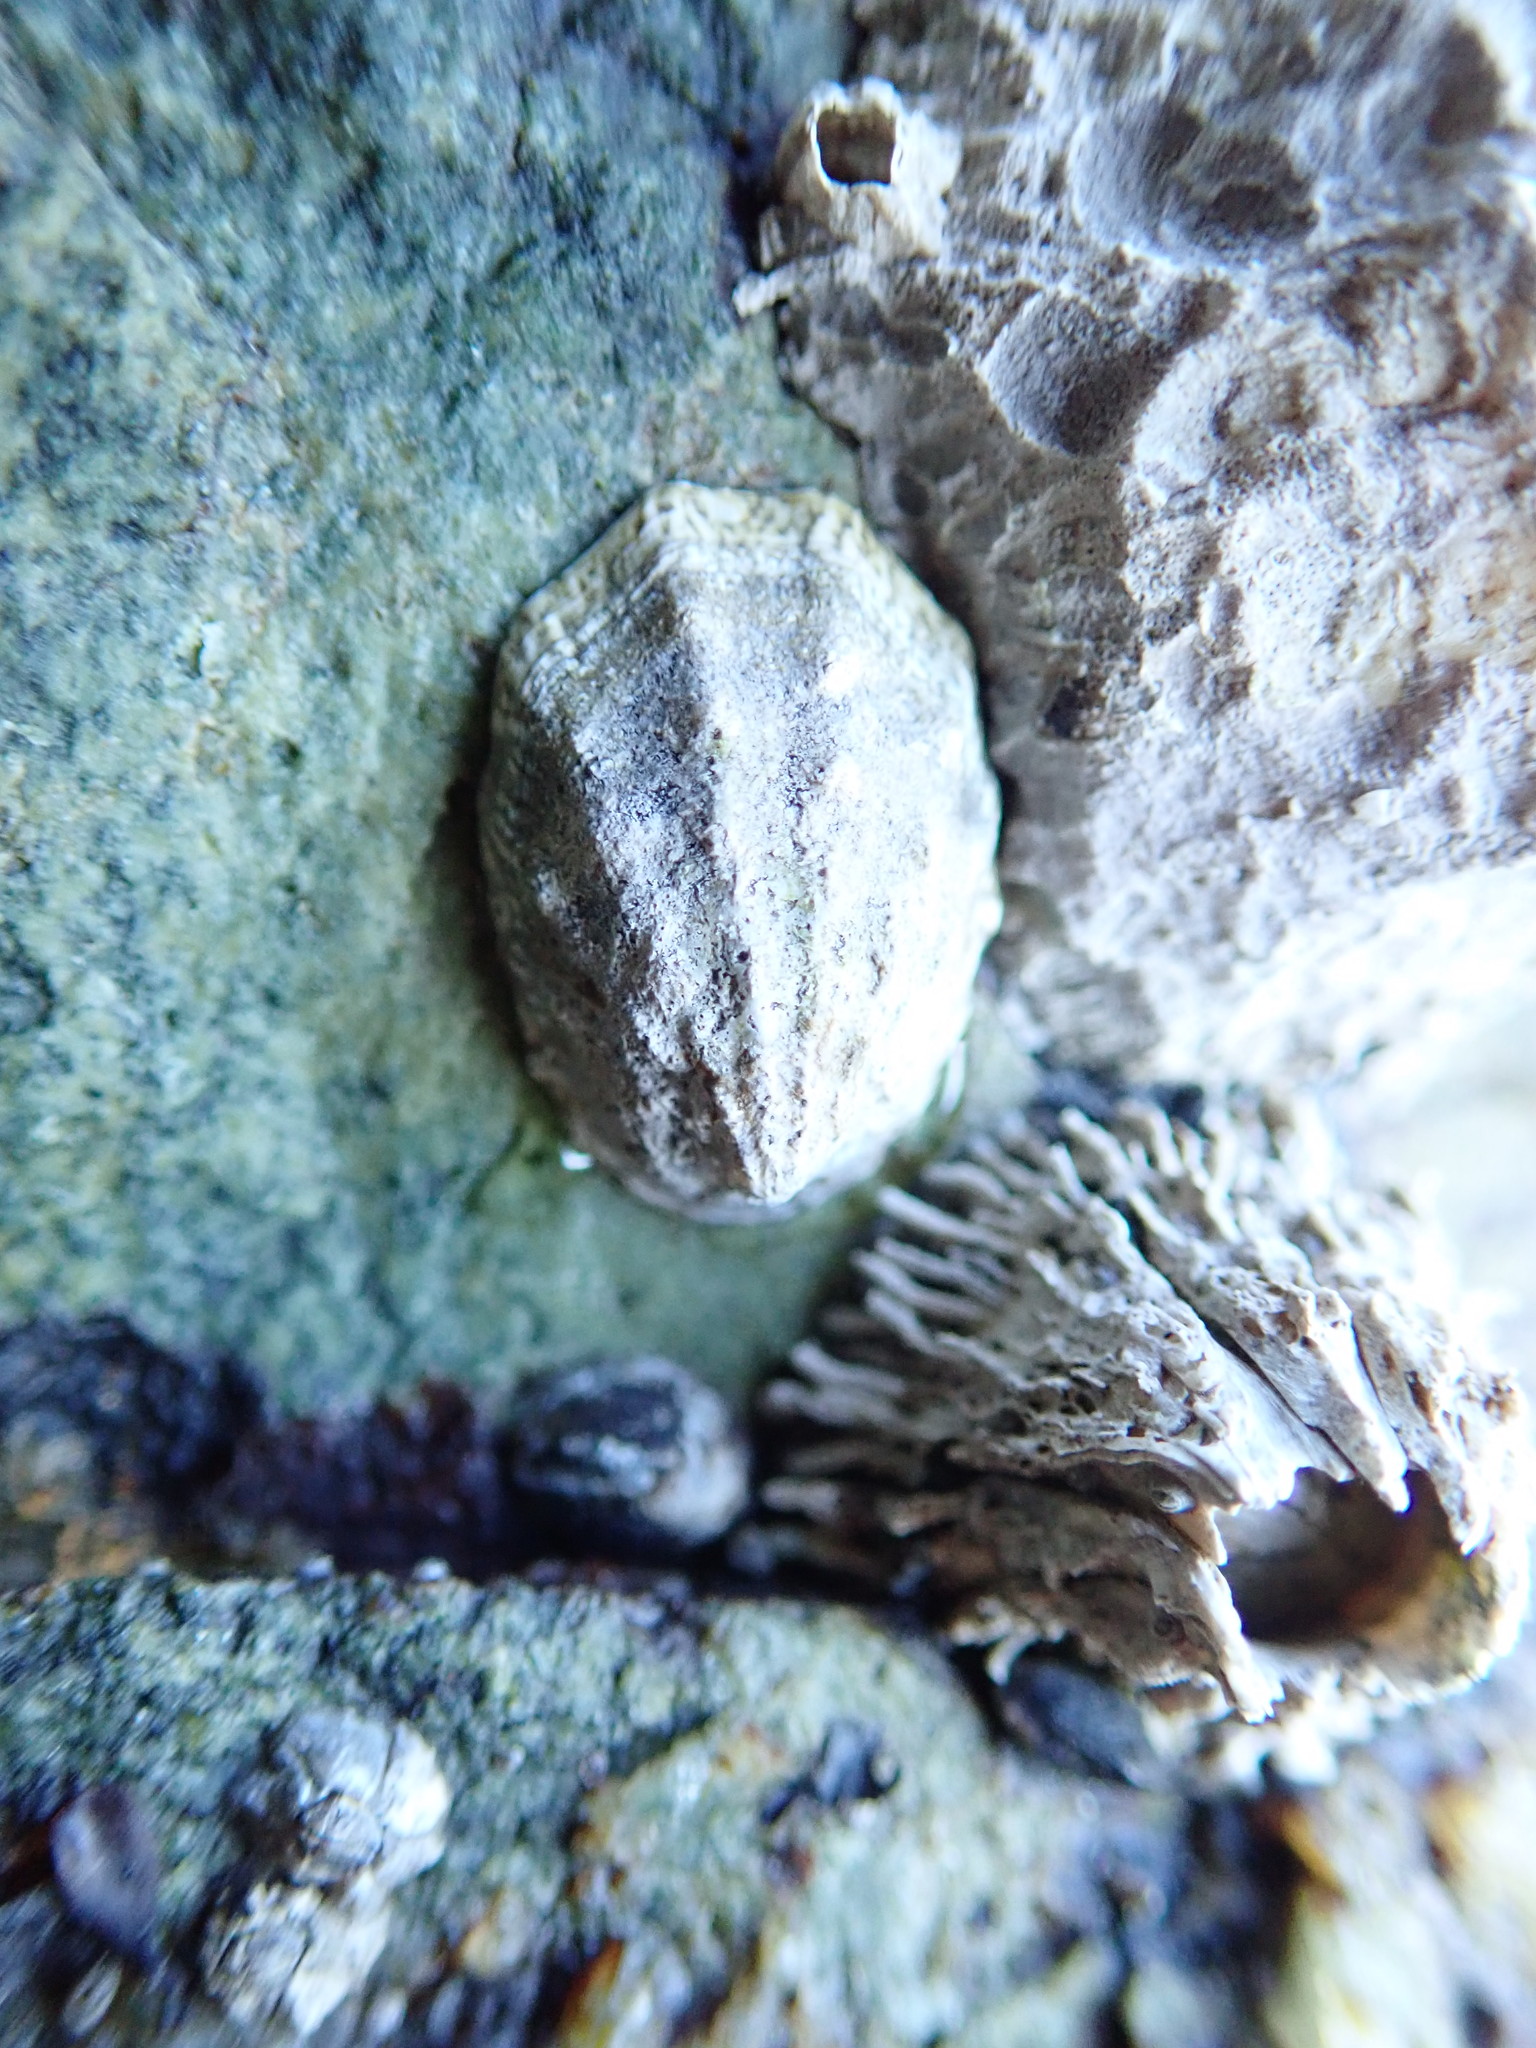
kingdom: Animalia
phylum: Mollusca
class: Gastropoda
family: Lottiidae
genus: Lottia
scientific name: Lottia digitalis
